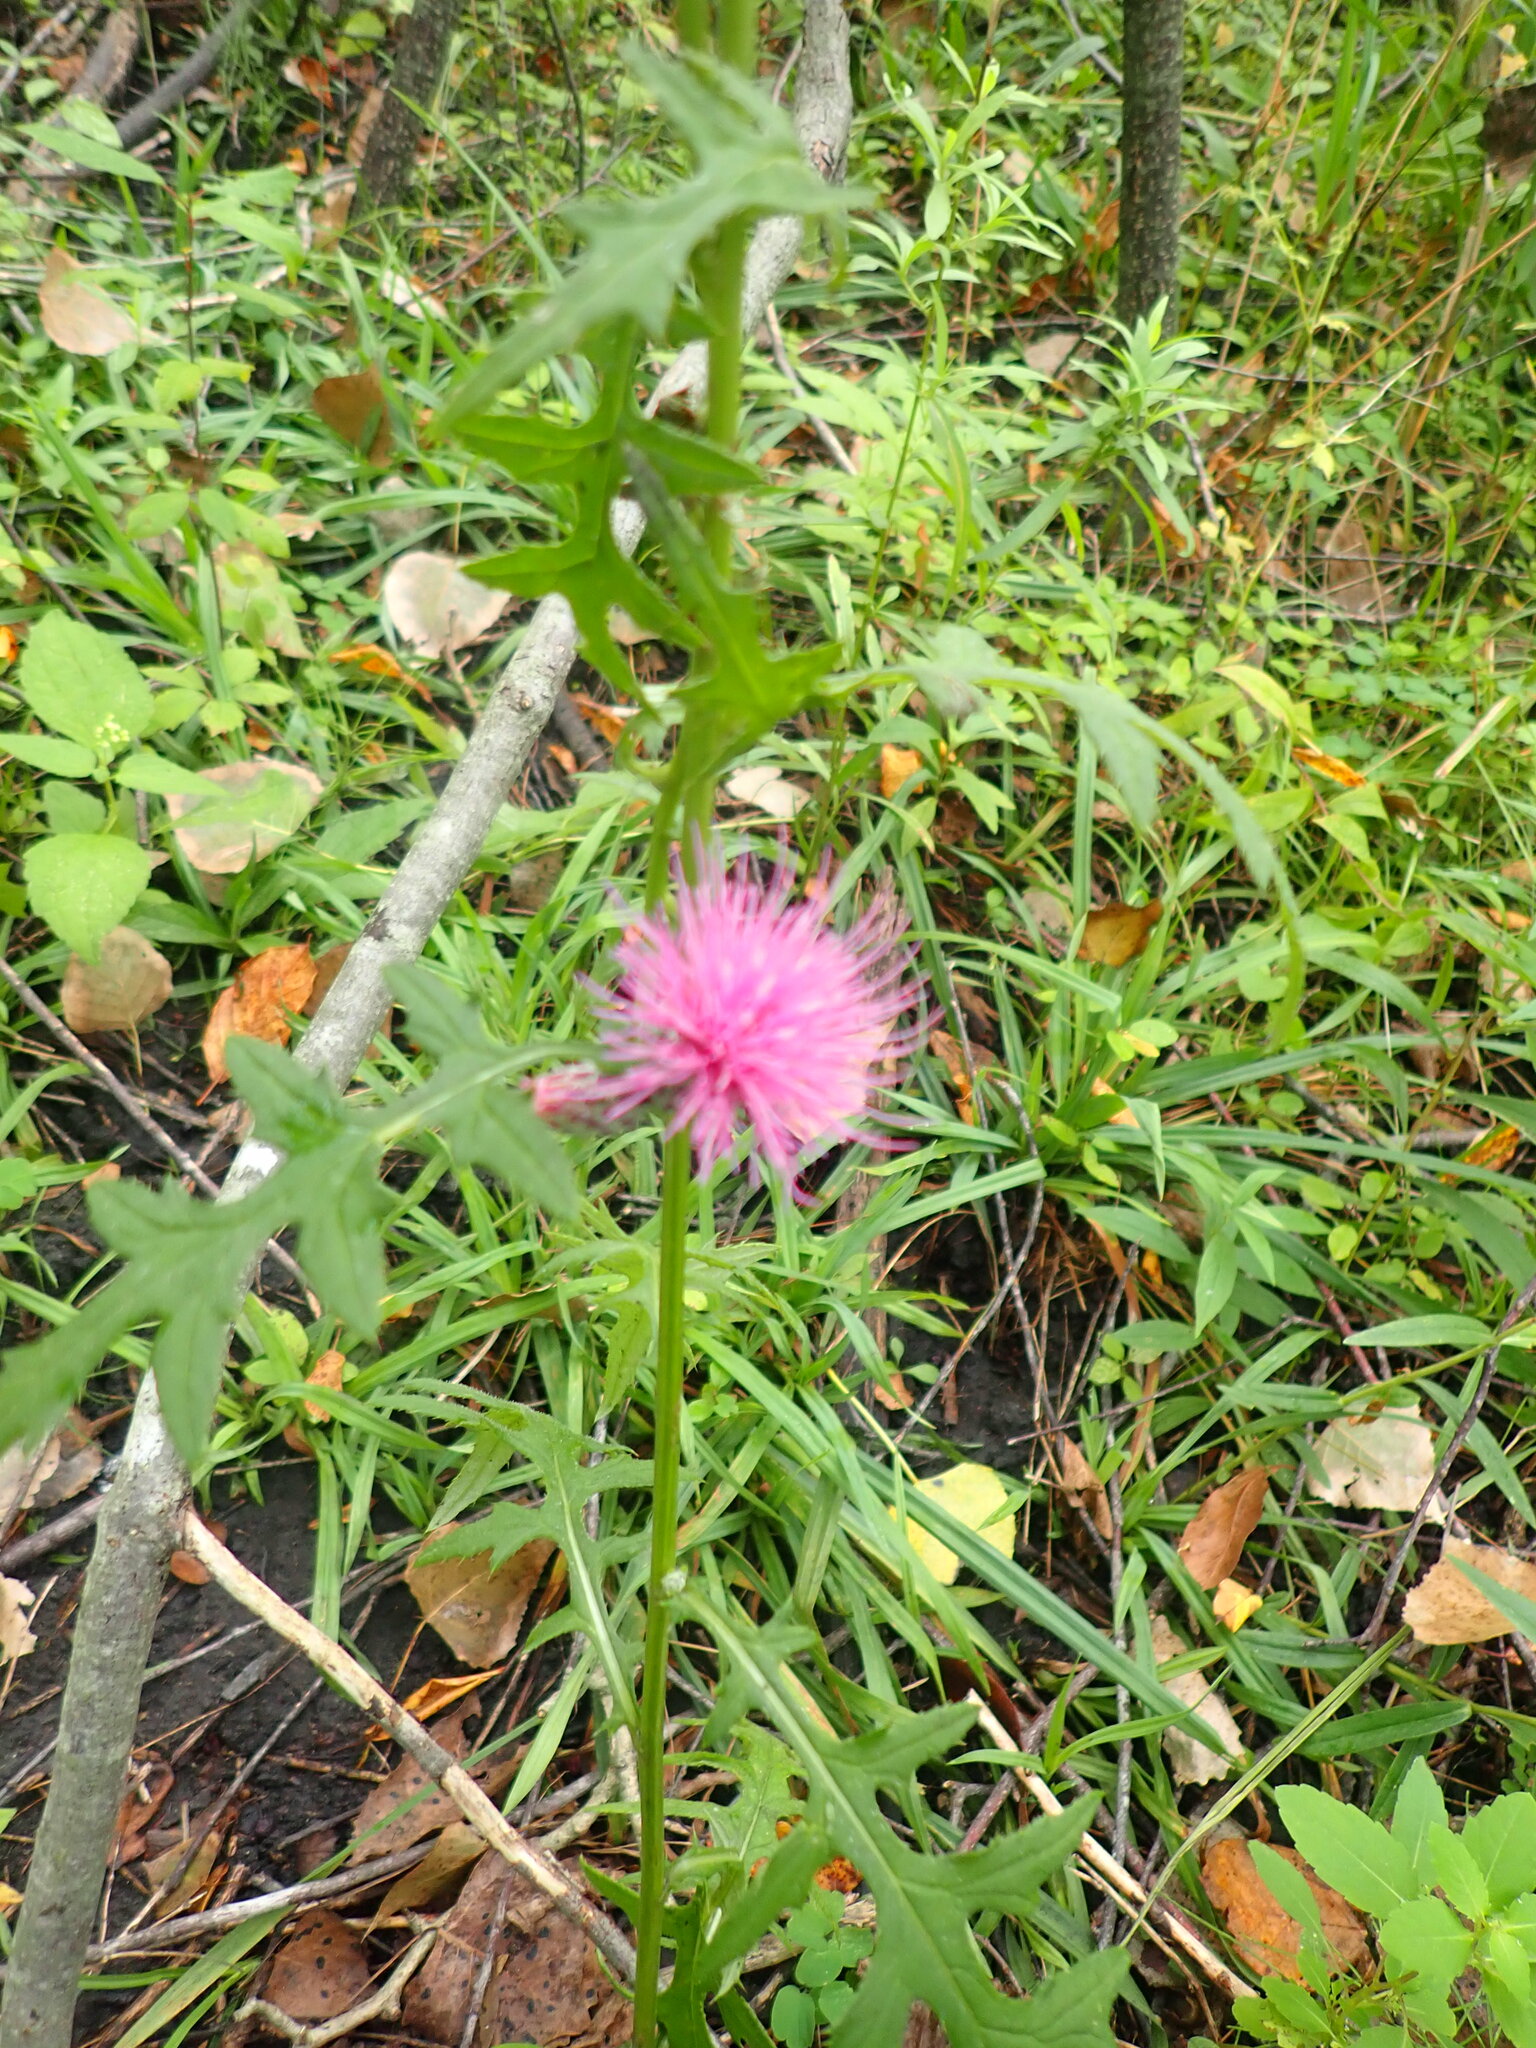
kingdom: Plantae
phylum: Tracheophyta
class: Magnoliopsida
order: Asterales
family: Asteraceae
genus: Cirsium
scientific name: Cirsium muticum
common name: Dunce-nettle
